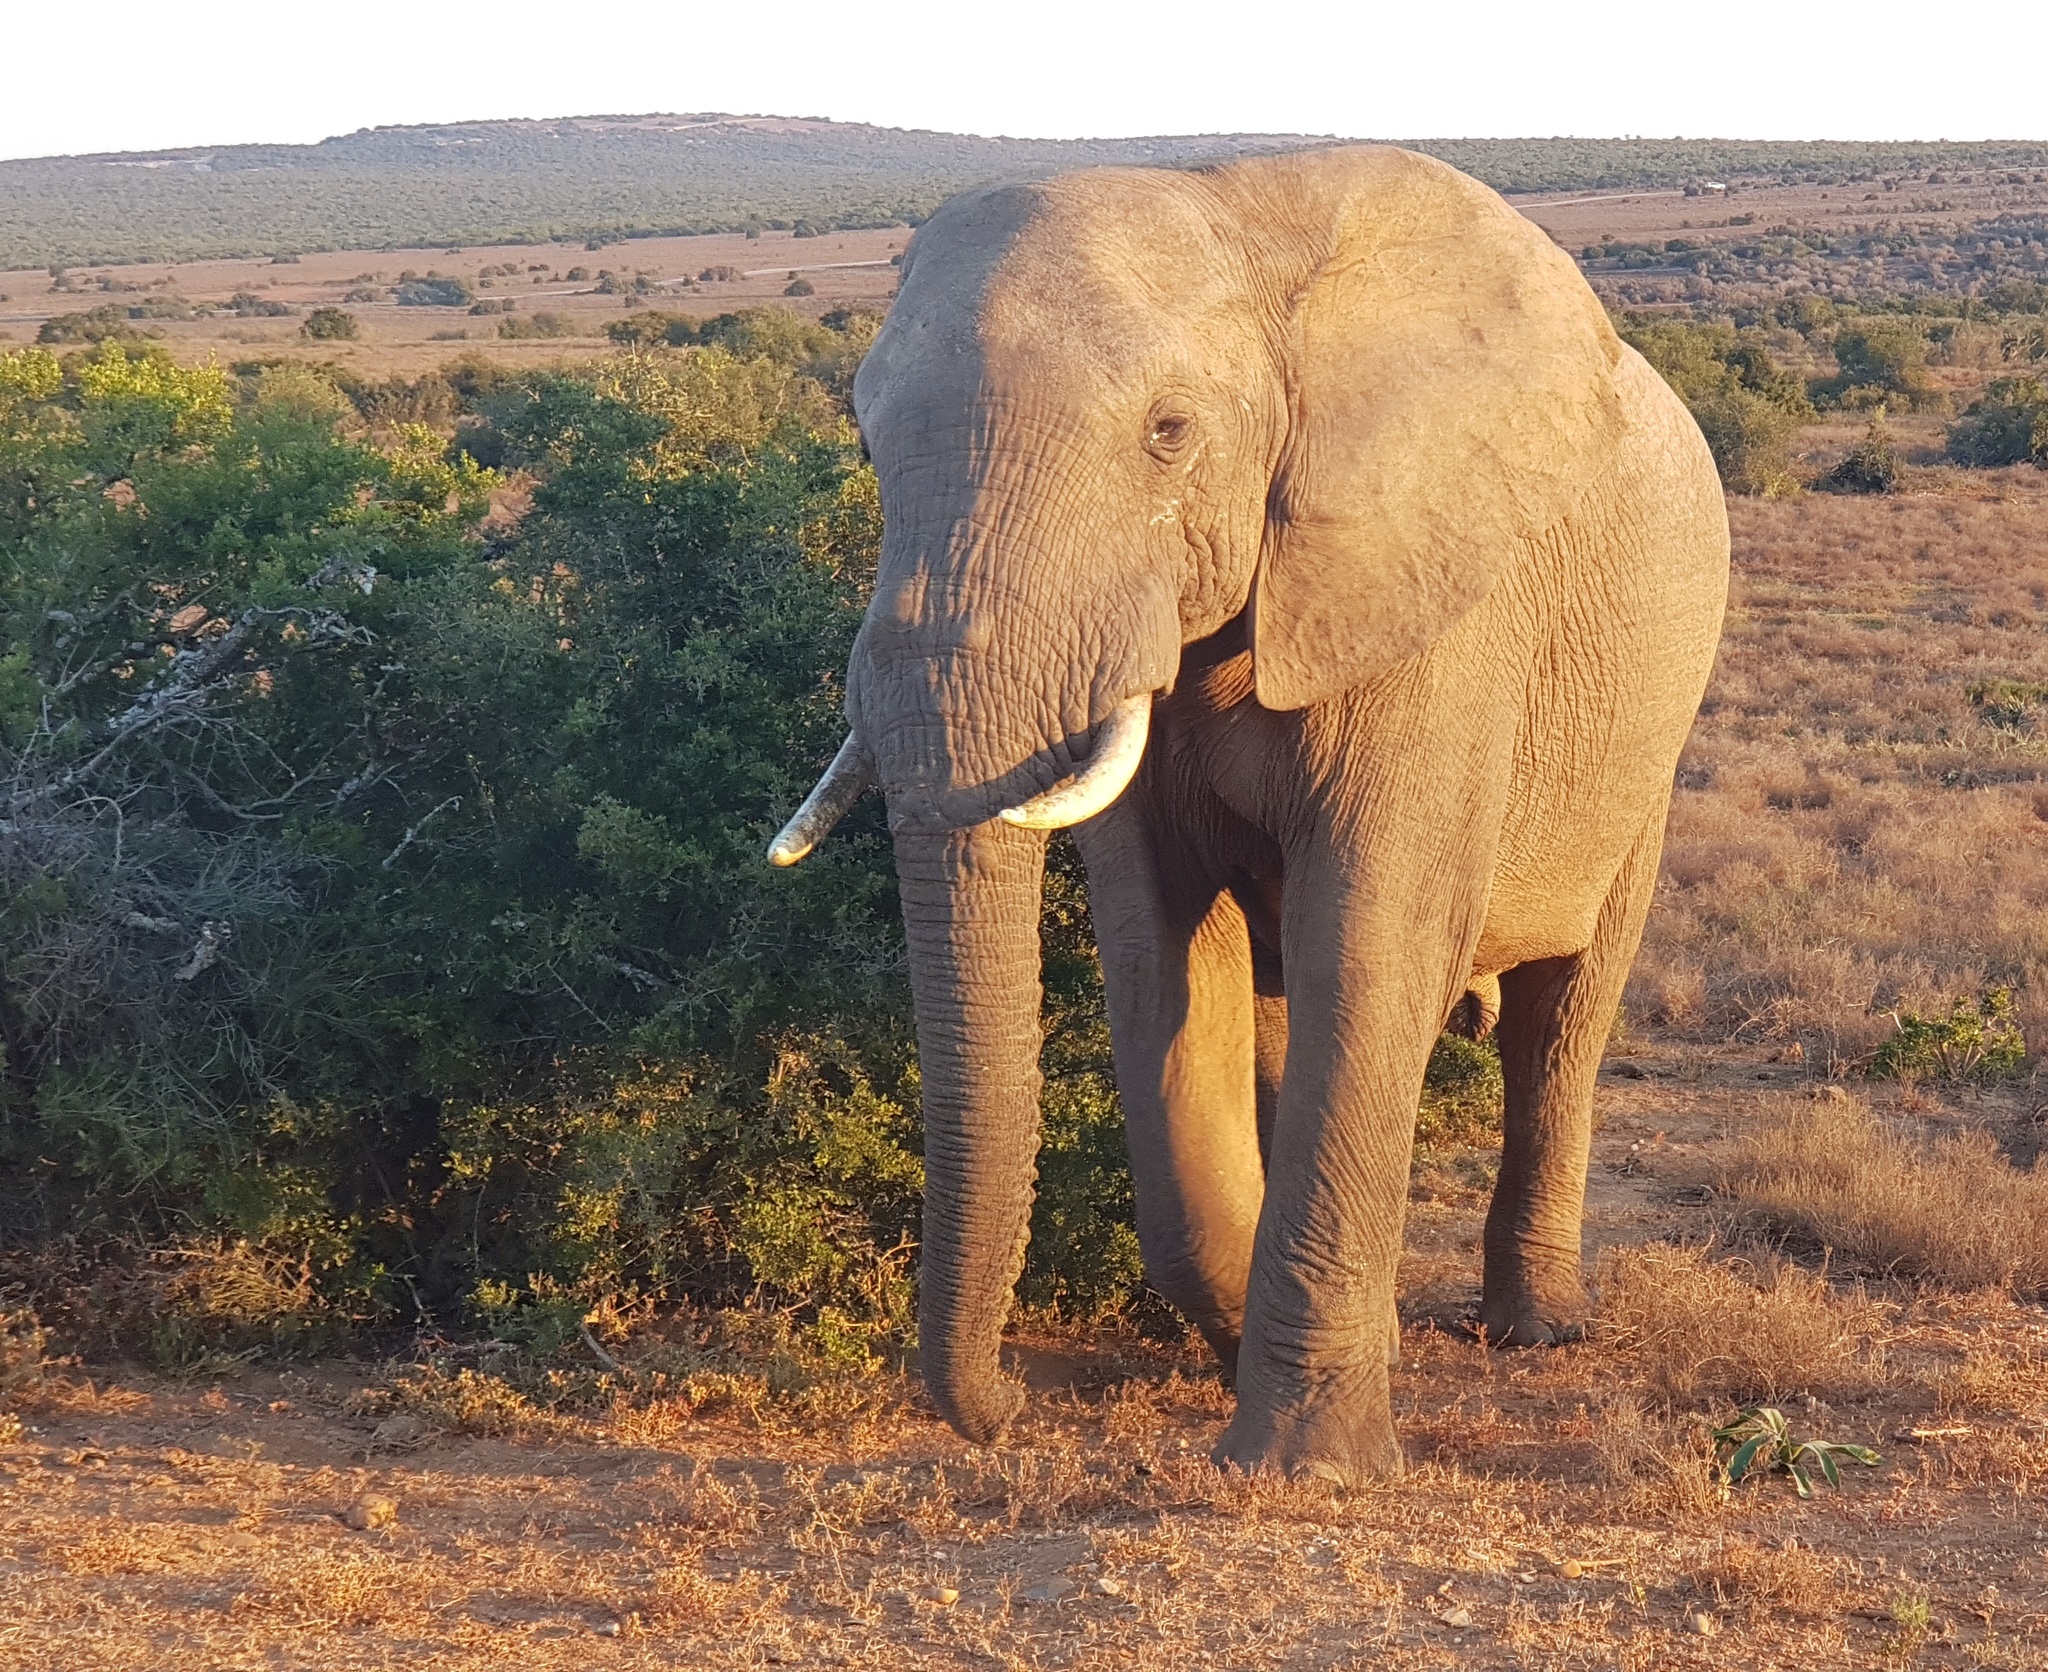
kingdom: Animalia
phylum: Chordata
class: Mammalia
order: Proboscidea
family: Elephantidae
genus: Loxodonta
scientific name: Loxodonta africana
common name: African elephant
